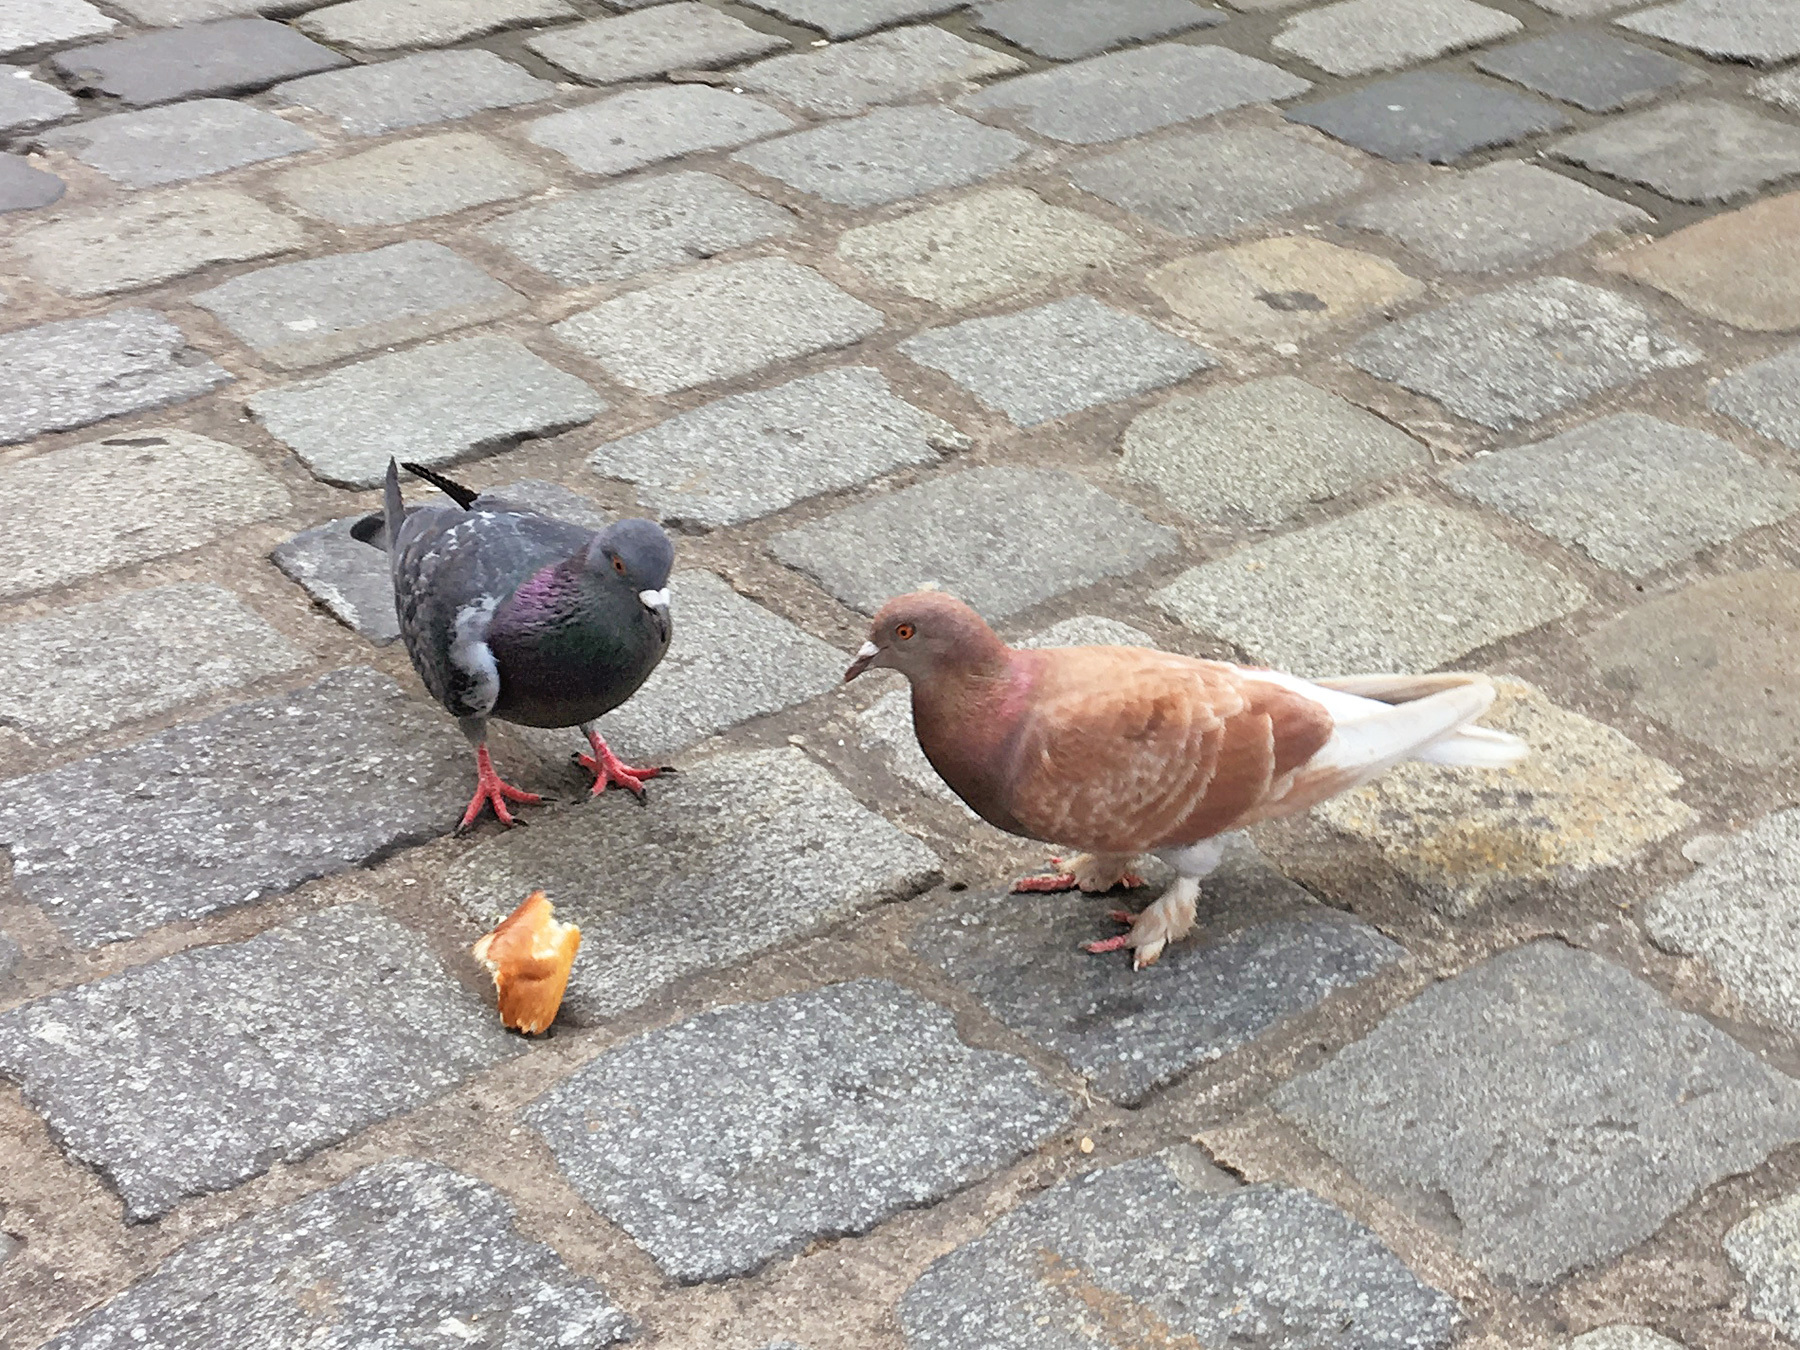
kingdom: Animalia
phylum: Chordata
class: Aves
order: Columbiformes
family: Columbidae
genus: Columba
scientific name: Columba livia
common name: Rock pigeon
